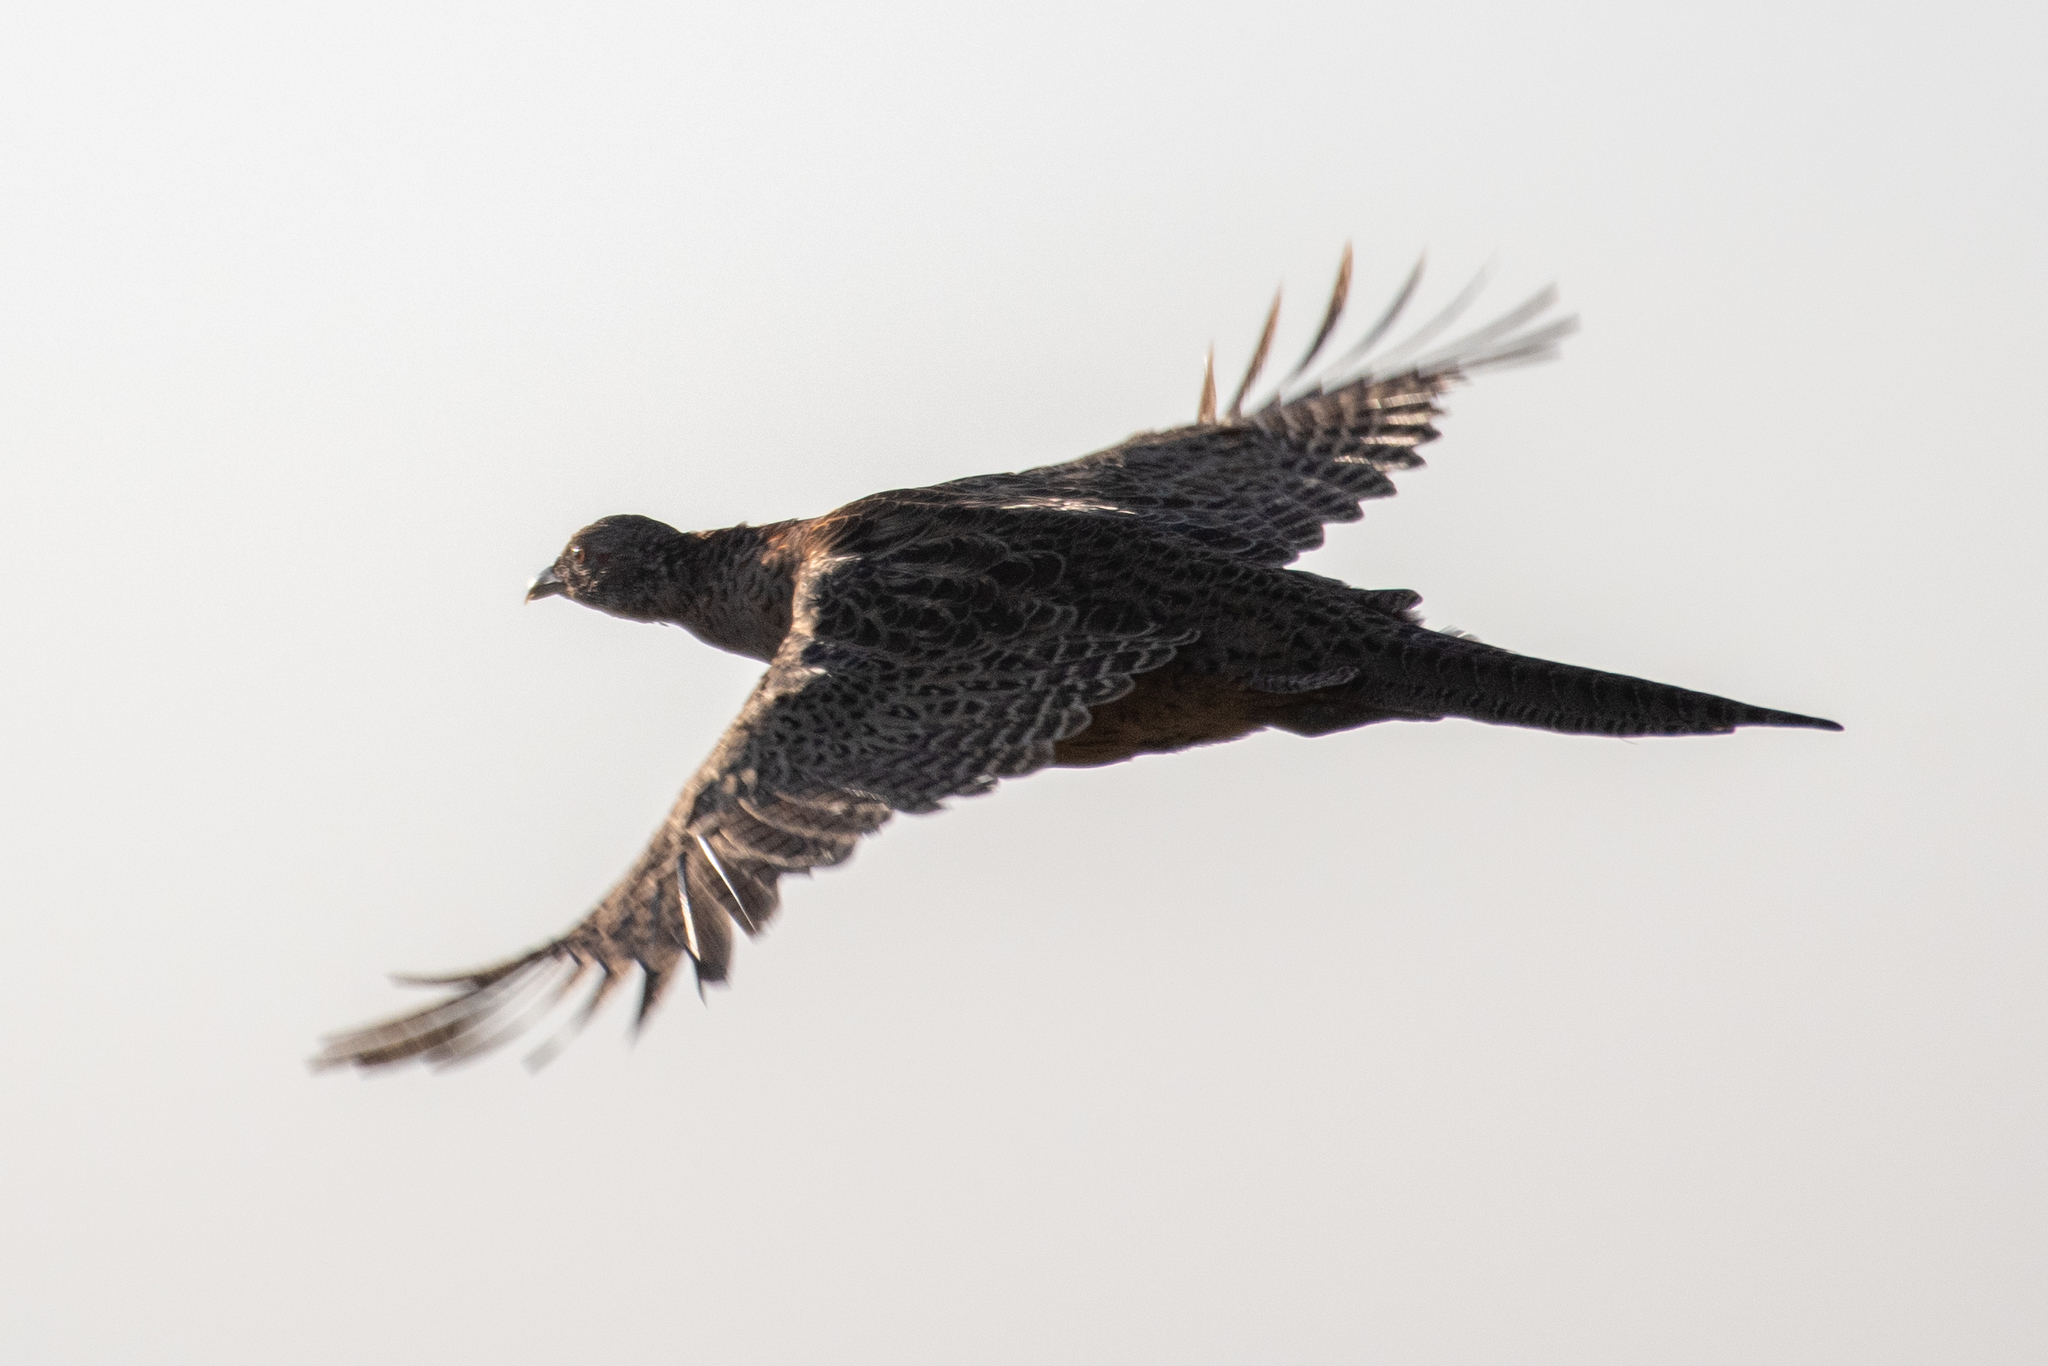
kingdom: Animalia
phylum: Chordata
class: Aves
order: Galliformes
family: Phasianidae
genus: Phasianus
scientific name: Phasianus colchicus
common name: Common pheasant
